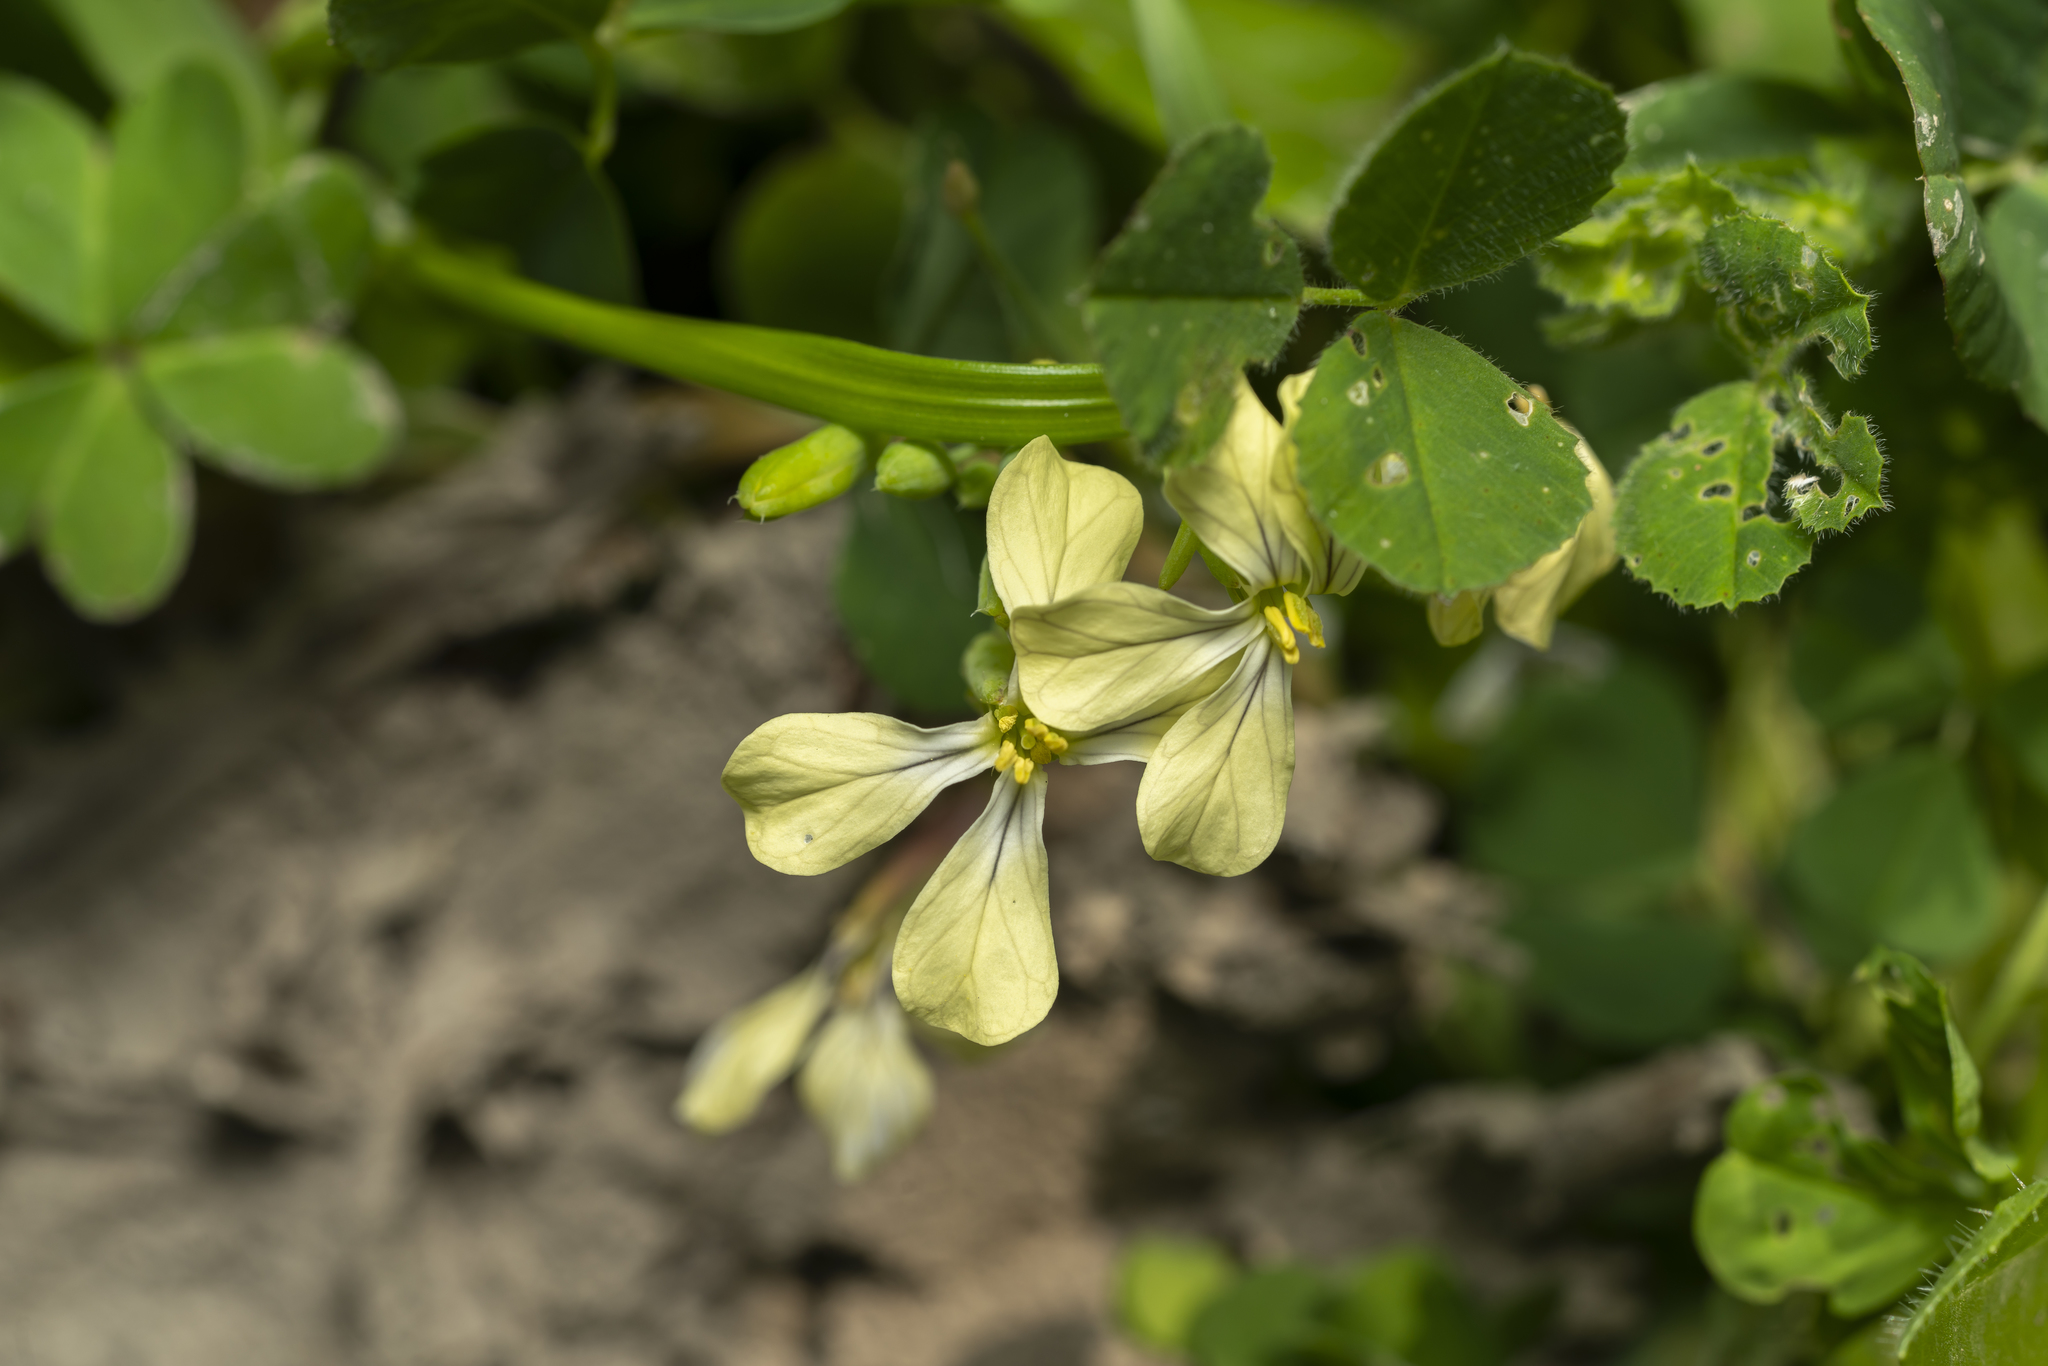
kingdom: Plantae
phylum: Tracheophyta
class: Magnoliopsida
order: Brassicales
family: Brassicaceae
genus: Raphanus
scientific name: Raphanus raphanistrum
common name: Wild radish
